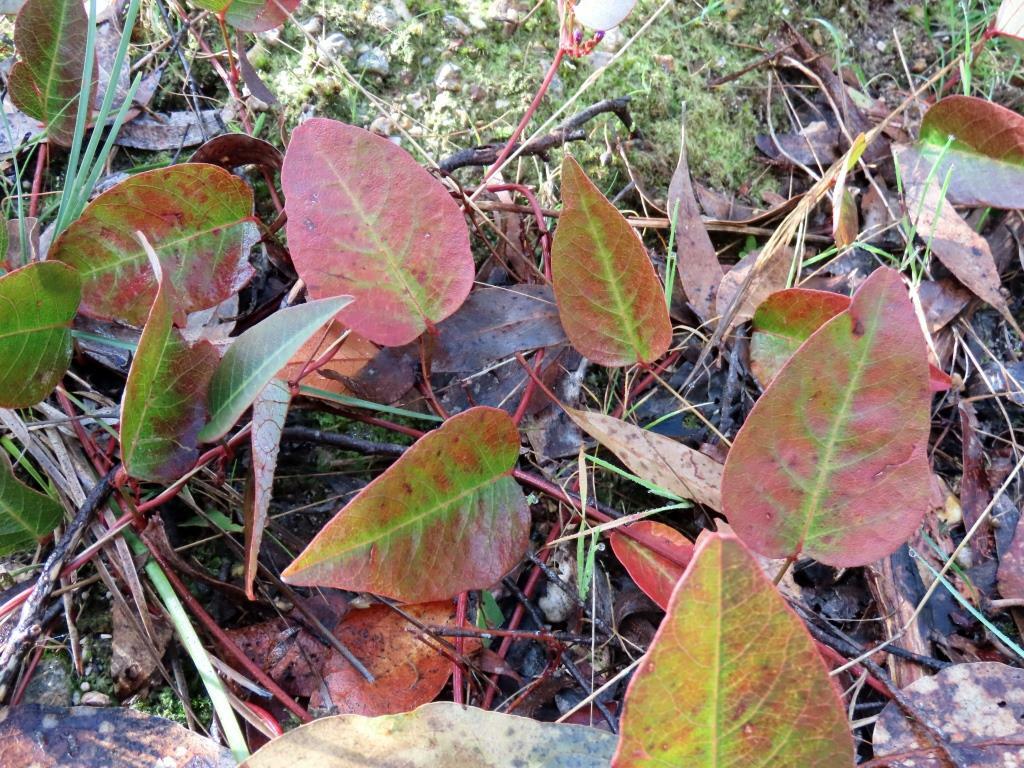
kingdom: Plantae
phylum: Tracheophyta
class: Magnoliopsida
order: Fabales
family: Fabaceae
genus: Hardenbergia
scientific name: Hardenbergia violacea
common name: Coral-pea
